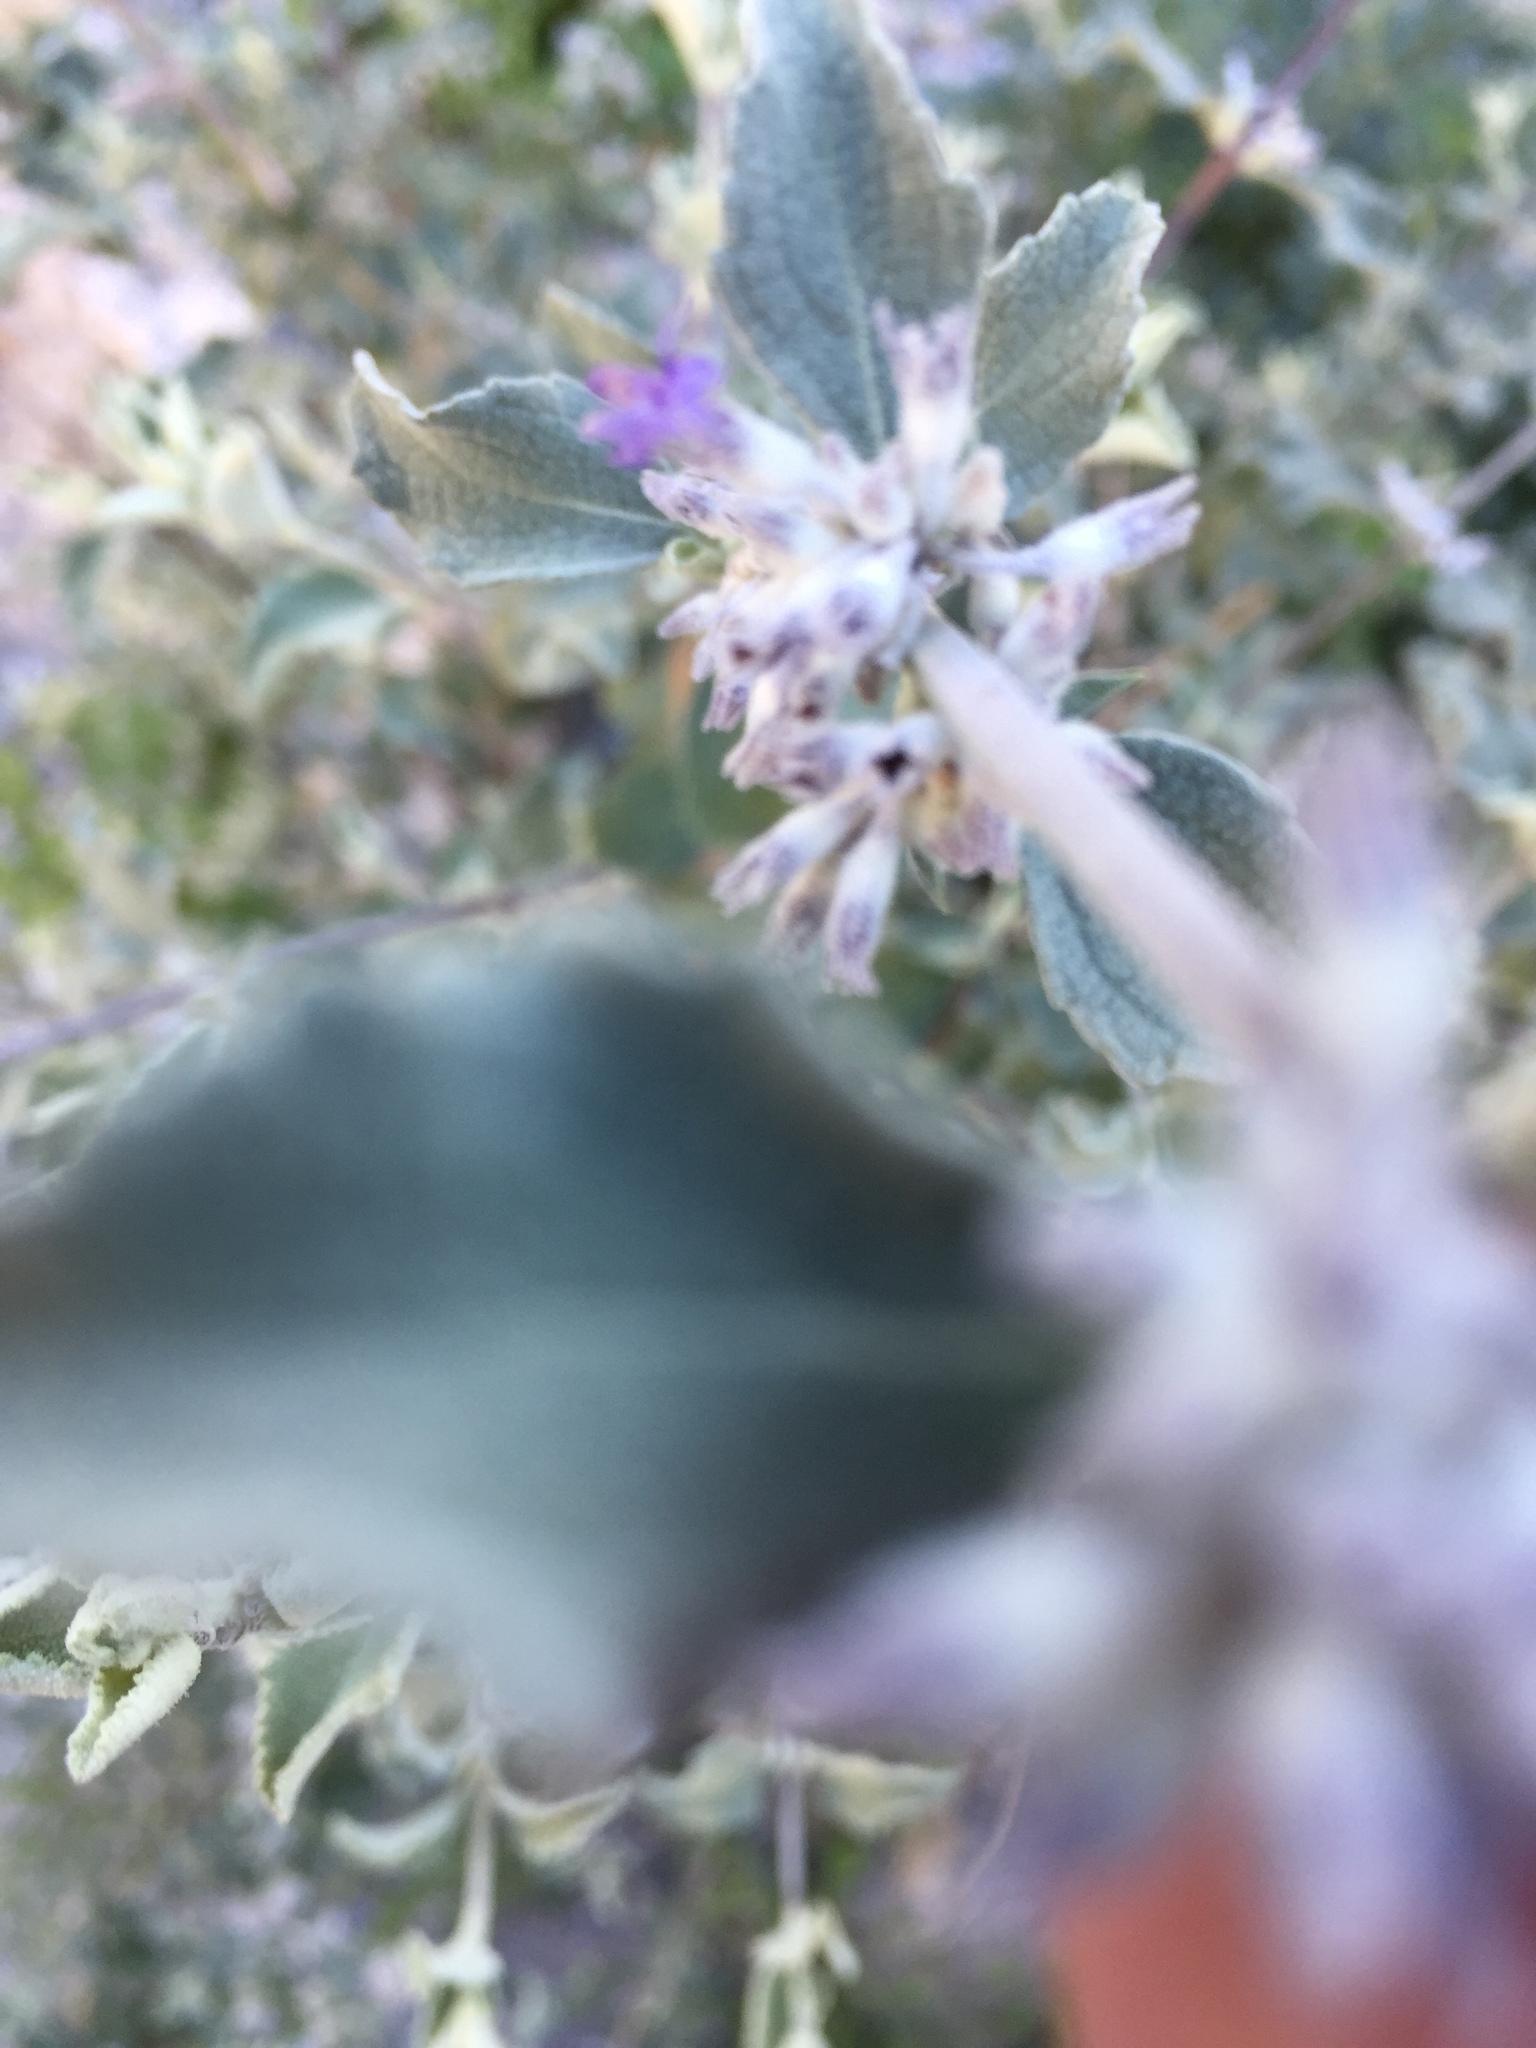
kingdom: Plantae
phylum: Tracheophyta
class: Magnoliopsida
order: Lamiales
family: Lamiaceae
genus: Condea
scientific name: Condea emoryi
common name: Chia
